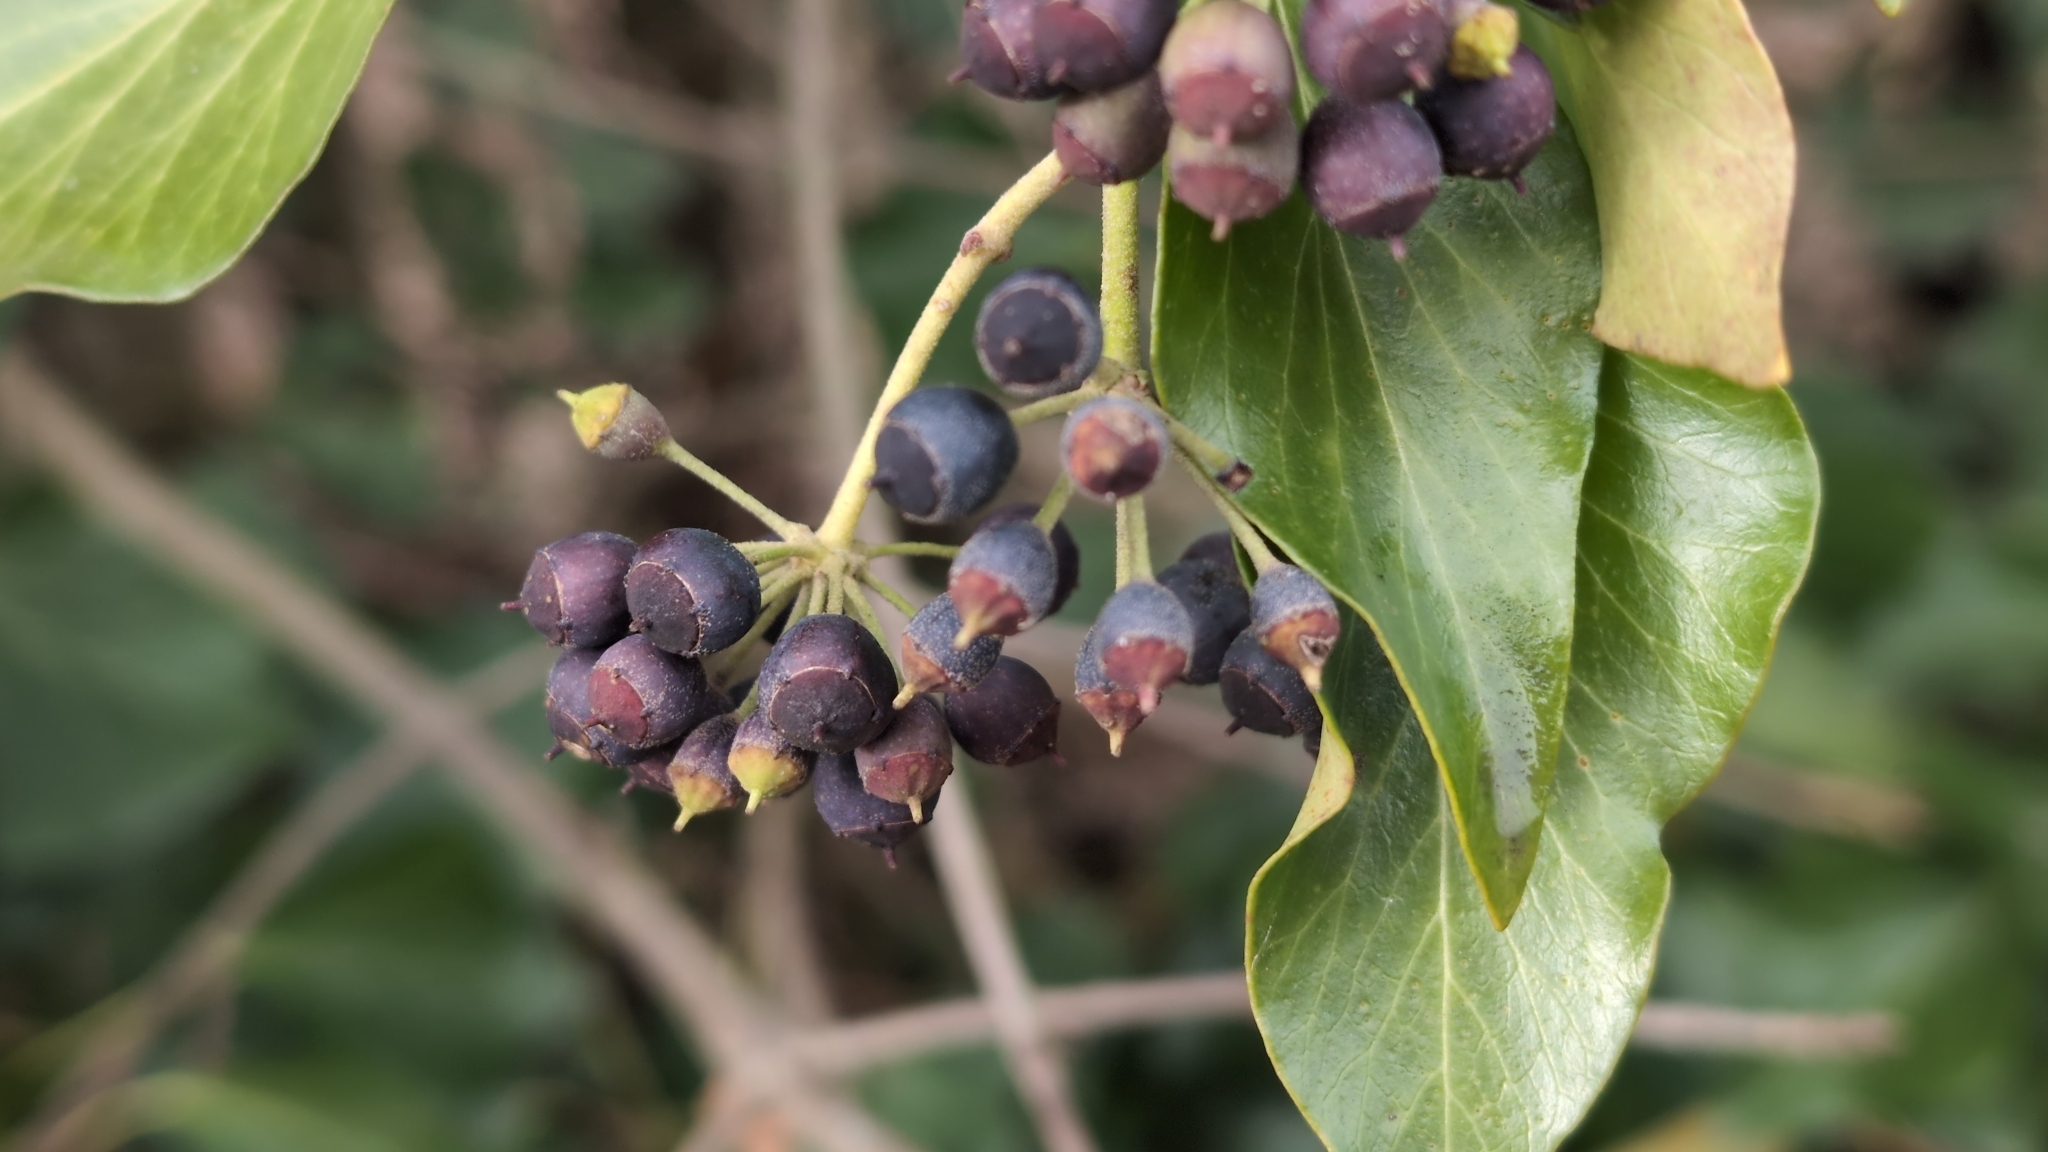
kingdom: Plantae
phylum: Tracheophyta
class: Magnoliopsida
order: Apiales
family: Araliaceae
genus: Hedera
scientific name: Hedera helix
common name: Ivy
